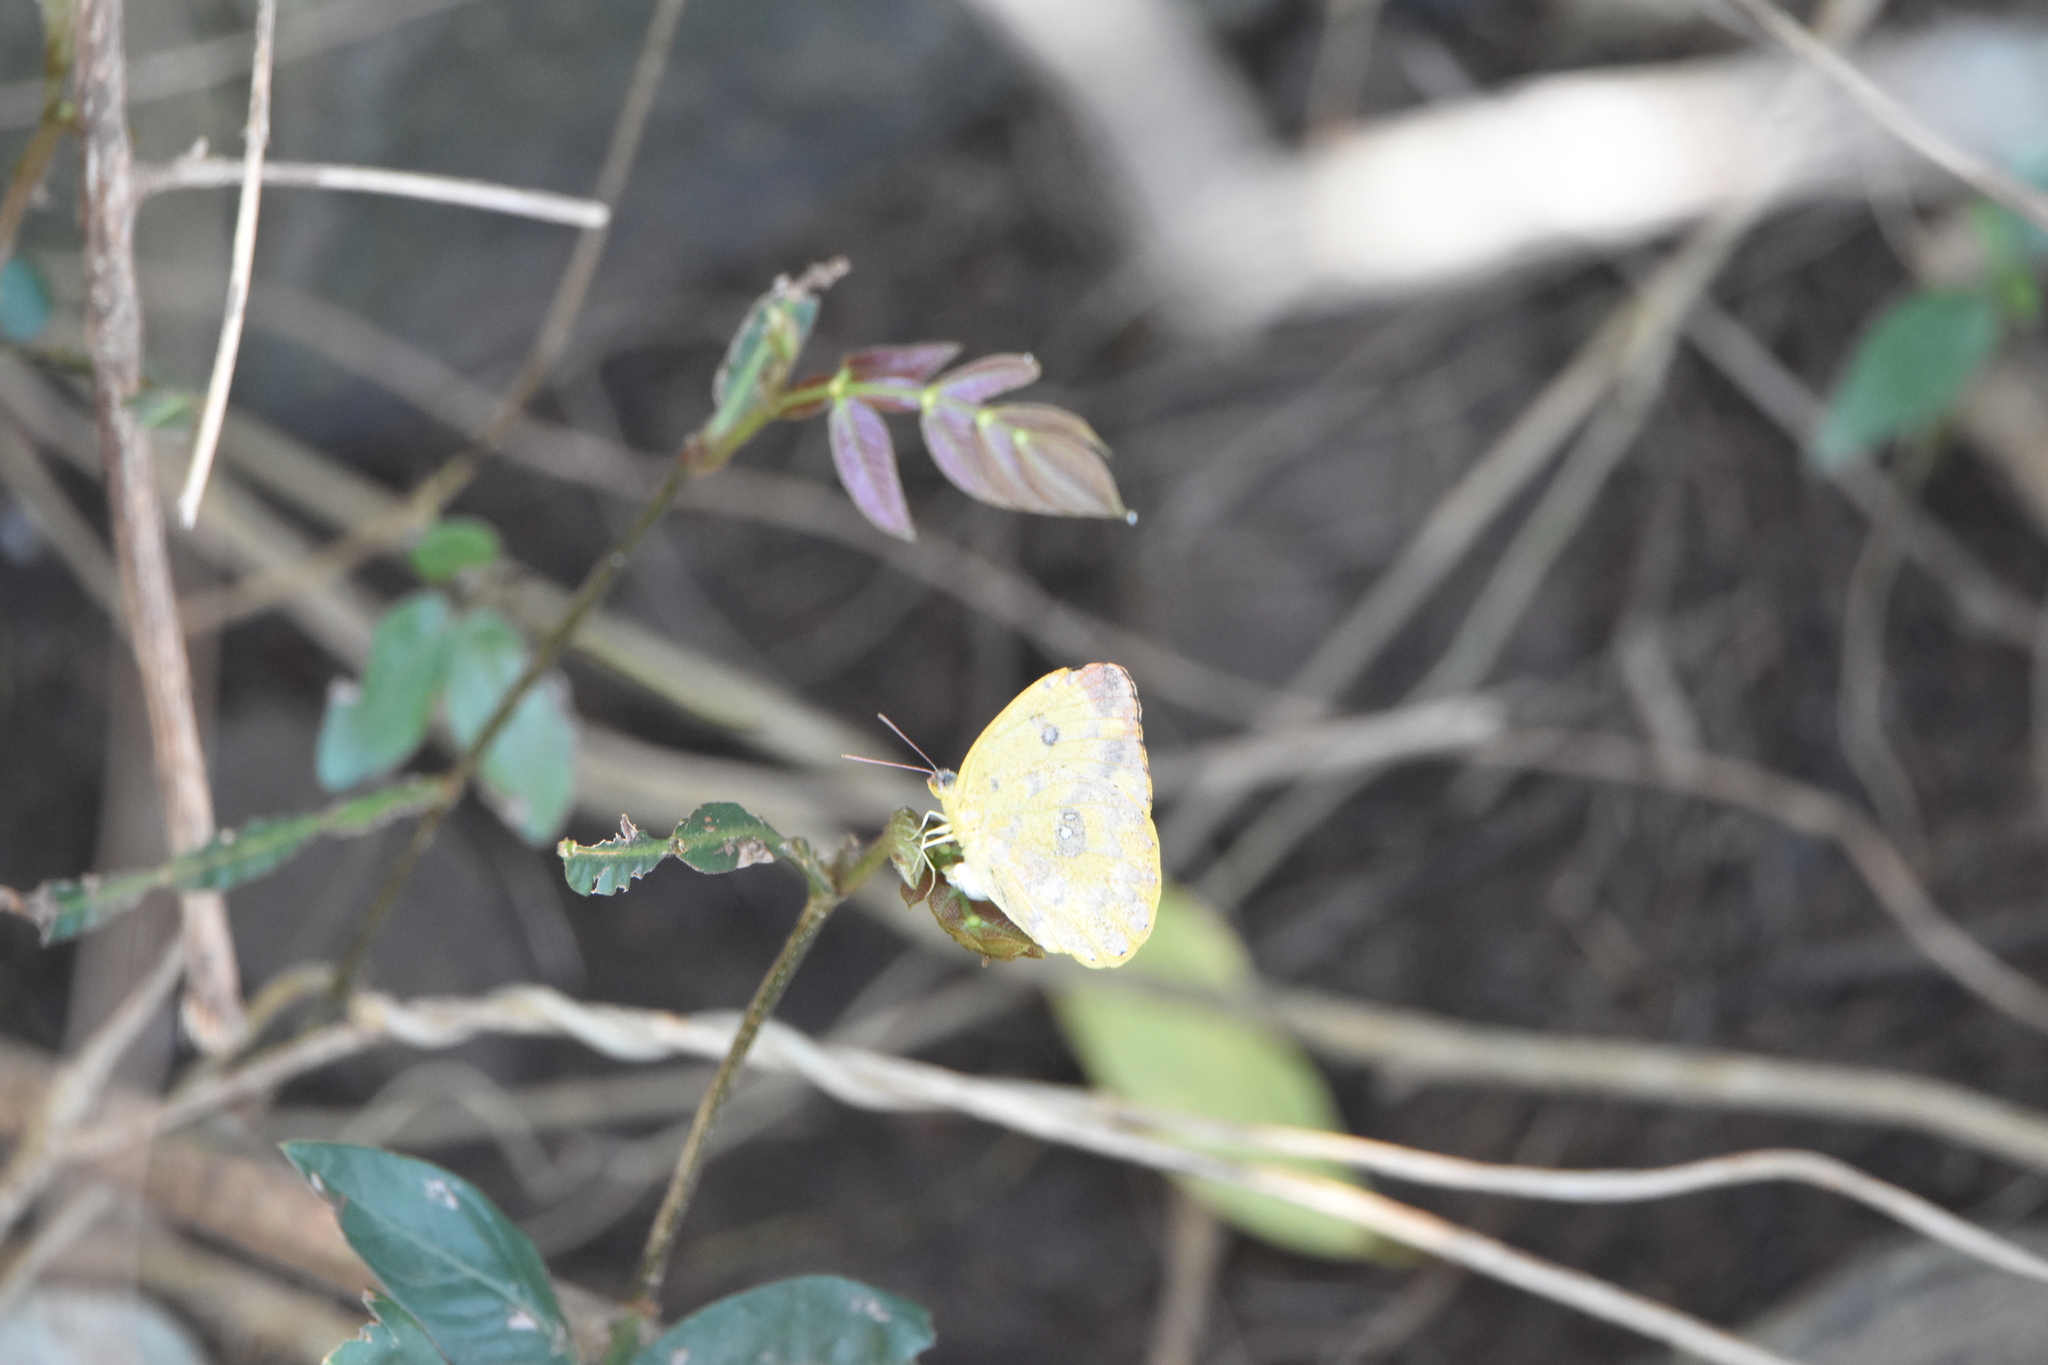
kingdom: Animalia
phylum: Arthropoda
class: Insecta
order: Lepidoptera
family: Pieridae
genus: Phoebis
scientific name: Phoebis argante
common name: Apricot sulphur
